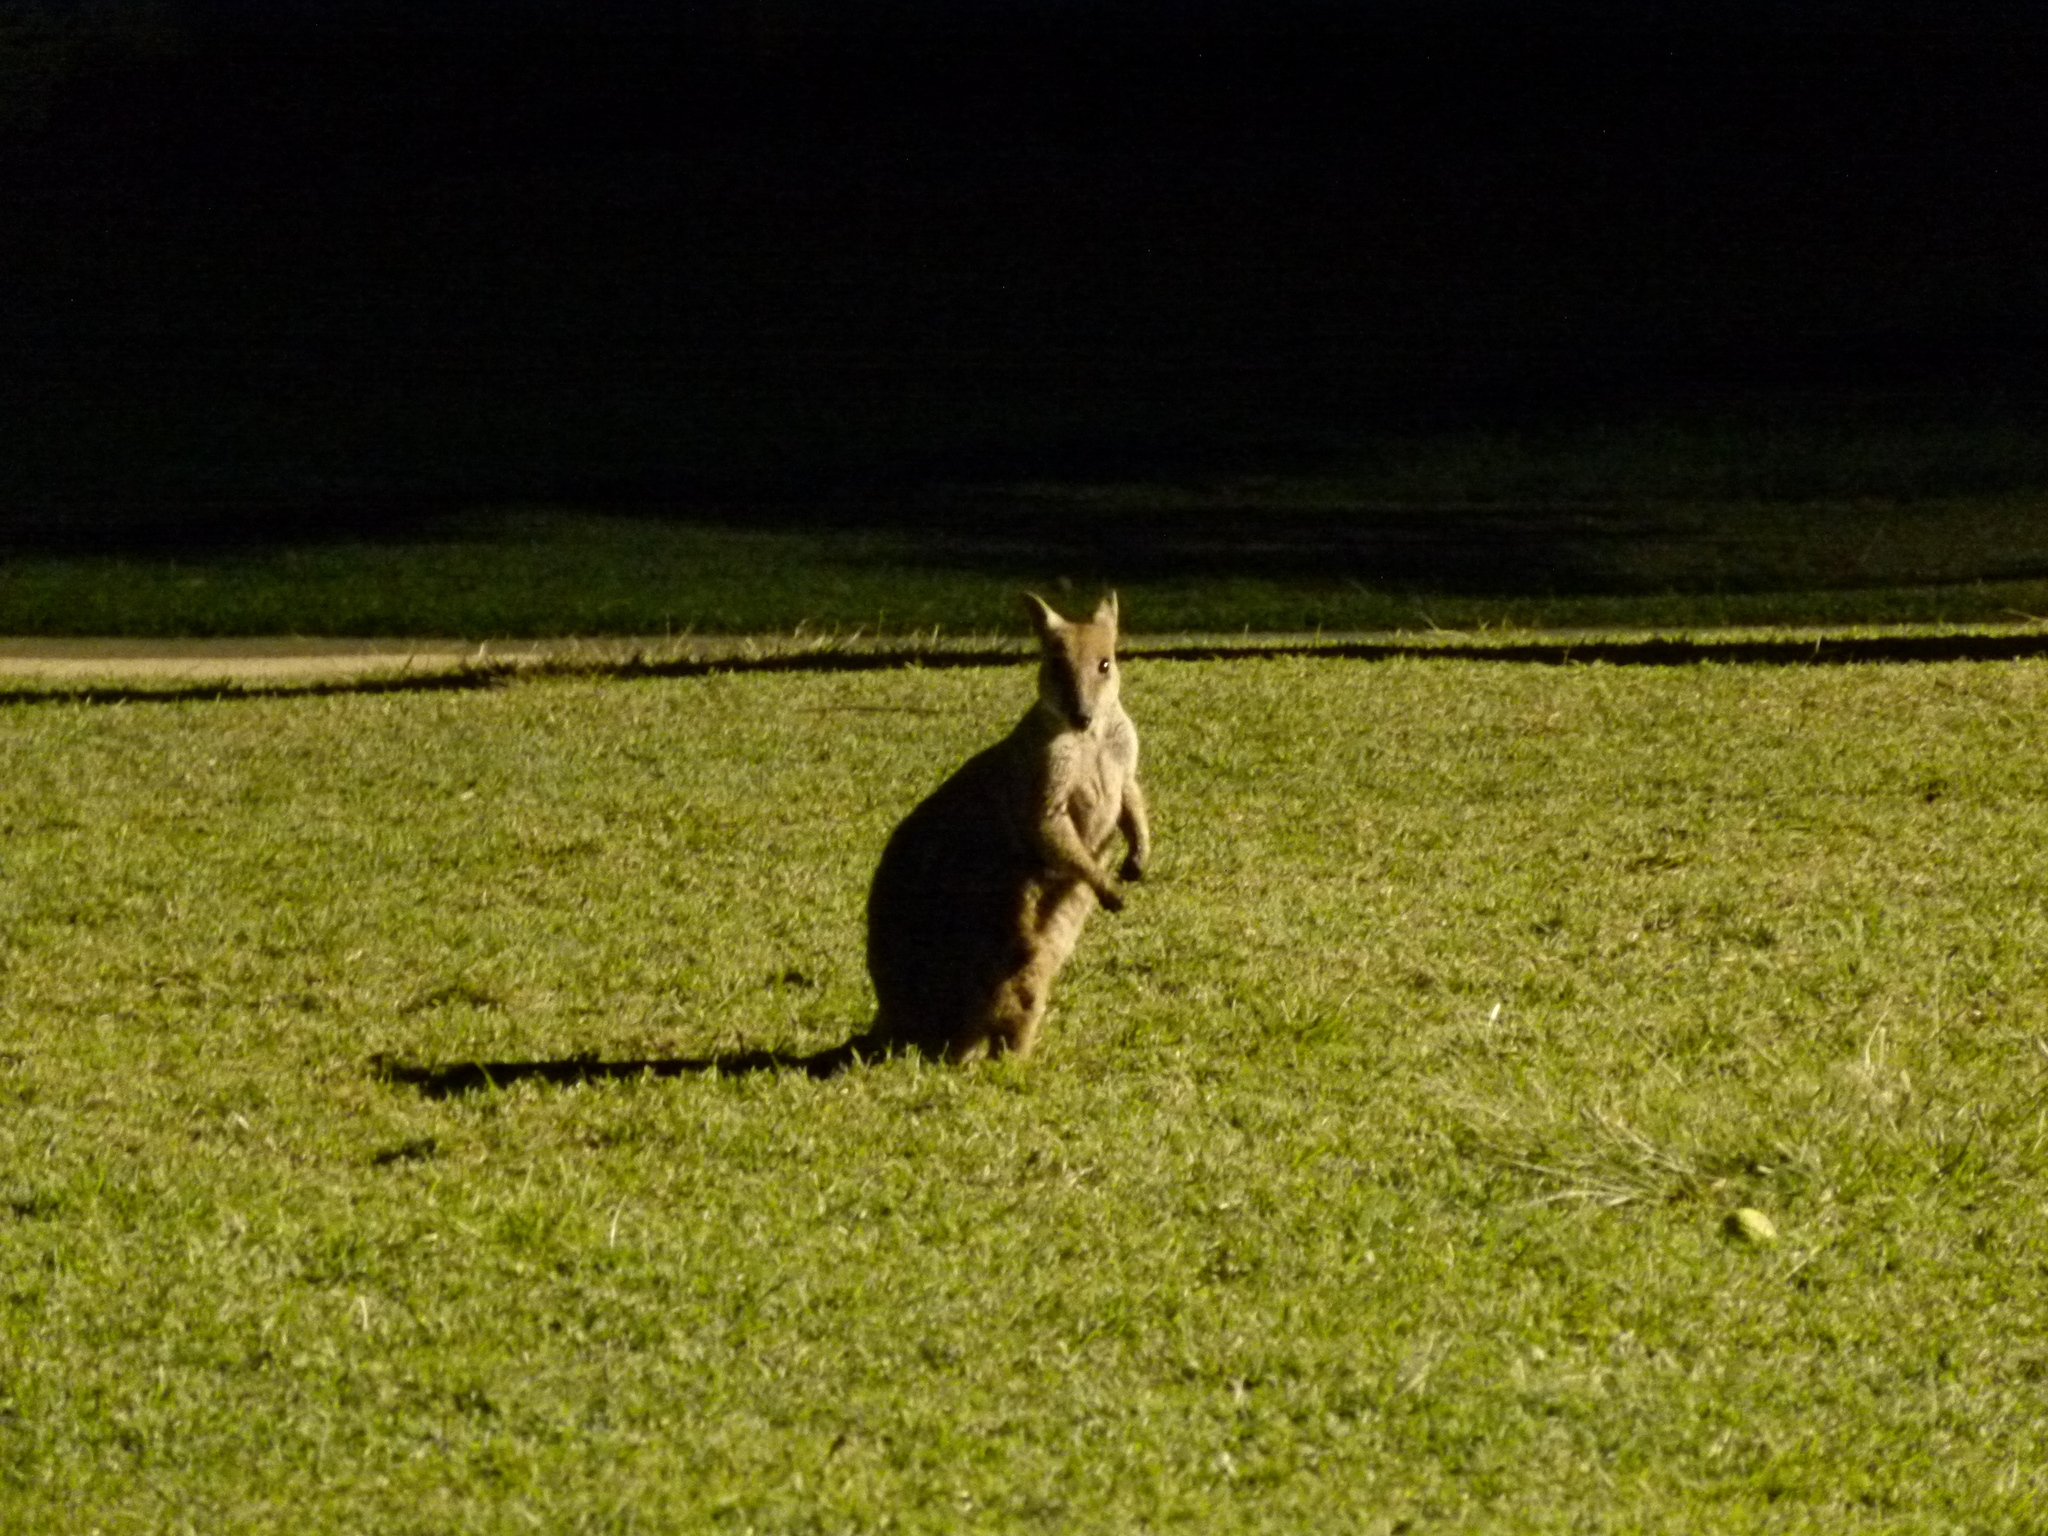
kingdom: Animalia
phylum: Chordata
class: Mammalia
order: Diprotodontia
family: Macropodidae
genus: Petrogale
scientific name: Petrogale assimilis
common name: Allied rock wallaby
